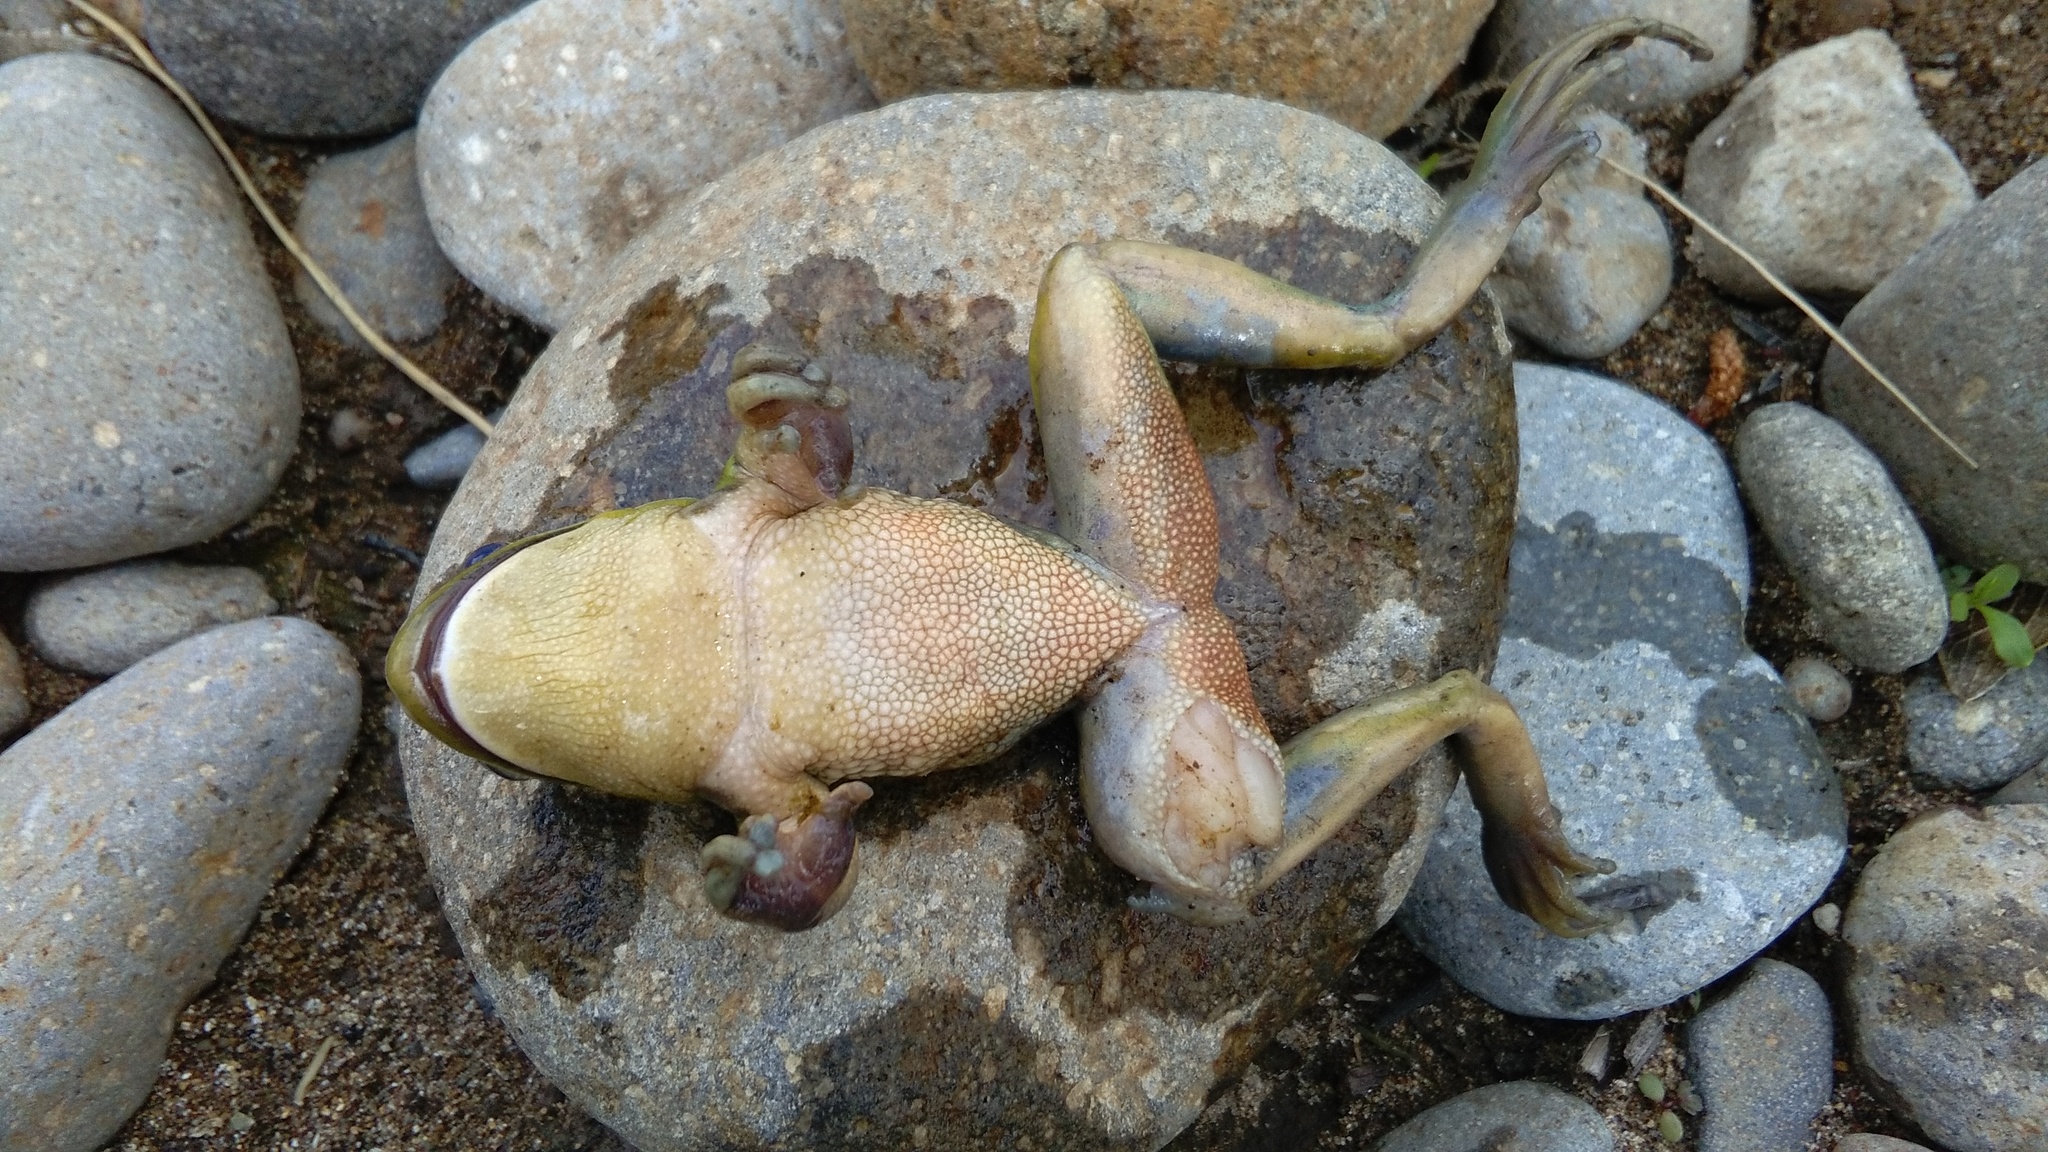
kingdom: Animalia
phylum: Chordata
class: Amphibia
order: Anura
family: Pelodryadidae
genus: Ranoidea
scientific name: Ranoidea aurea
